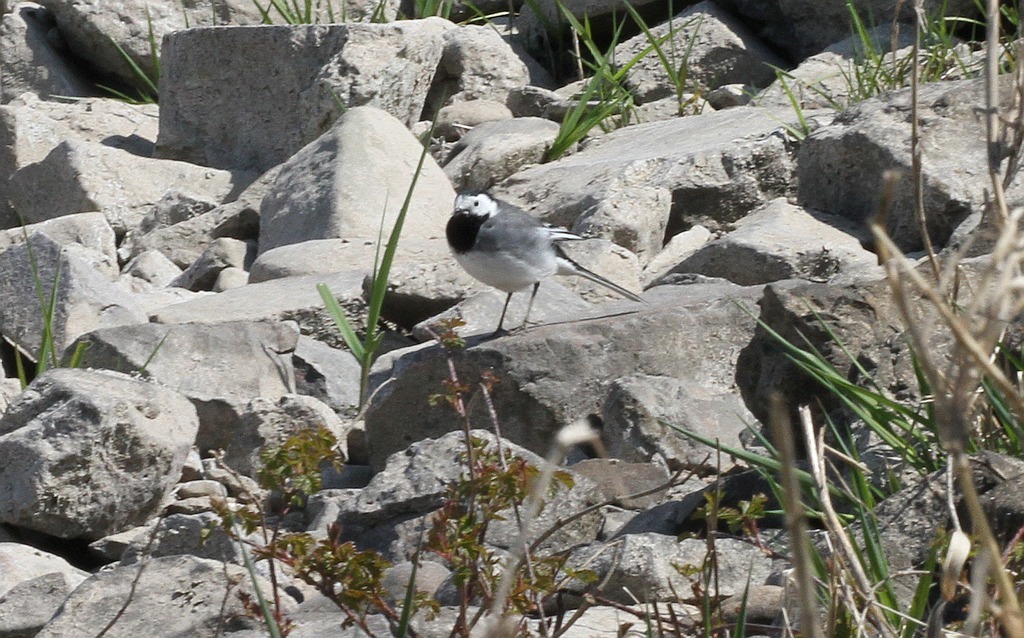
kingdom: Animalia
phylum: Chordata
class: Aves
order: Passeriformes
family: Motacillidae
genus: Motacilla
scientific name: Motacilla alba
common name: White wagtail
